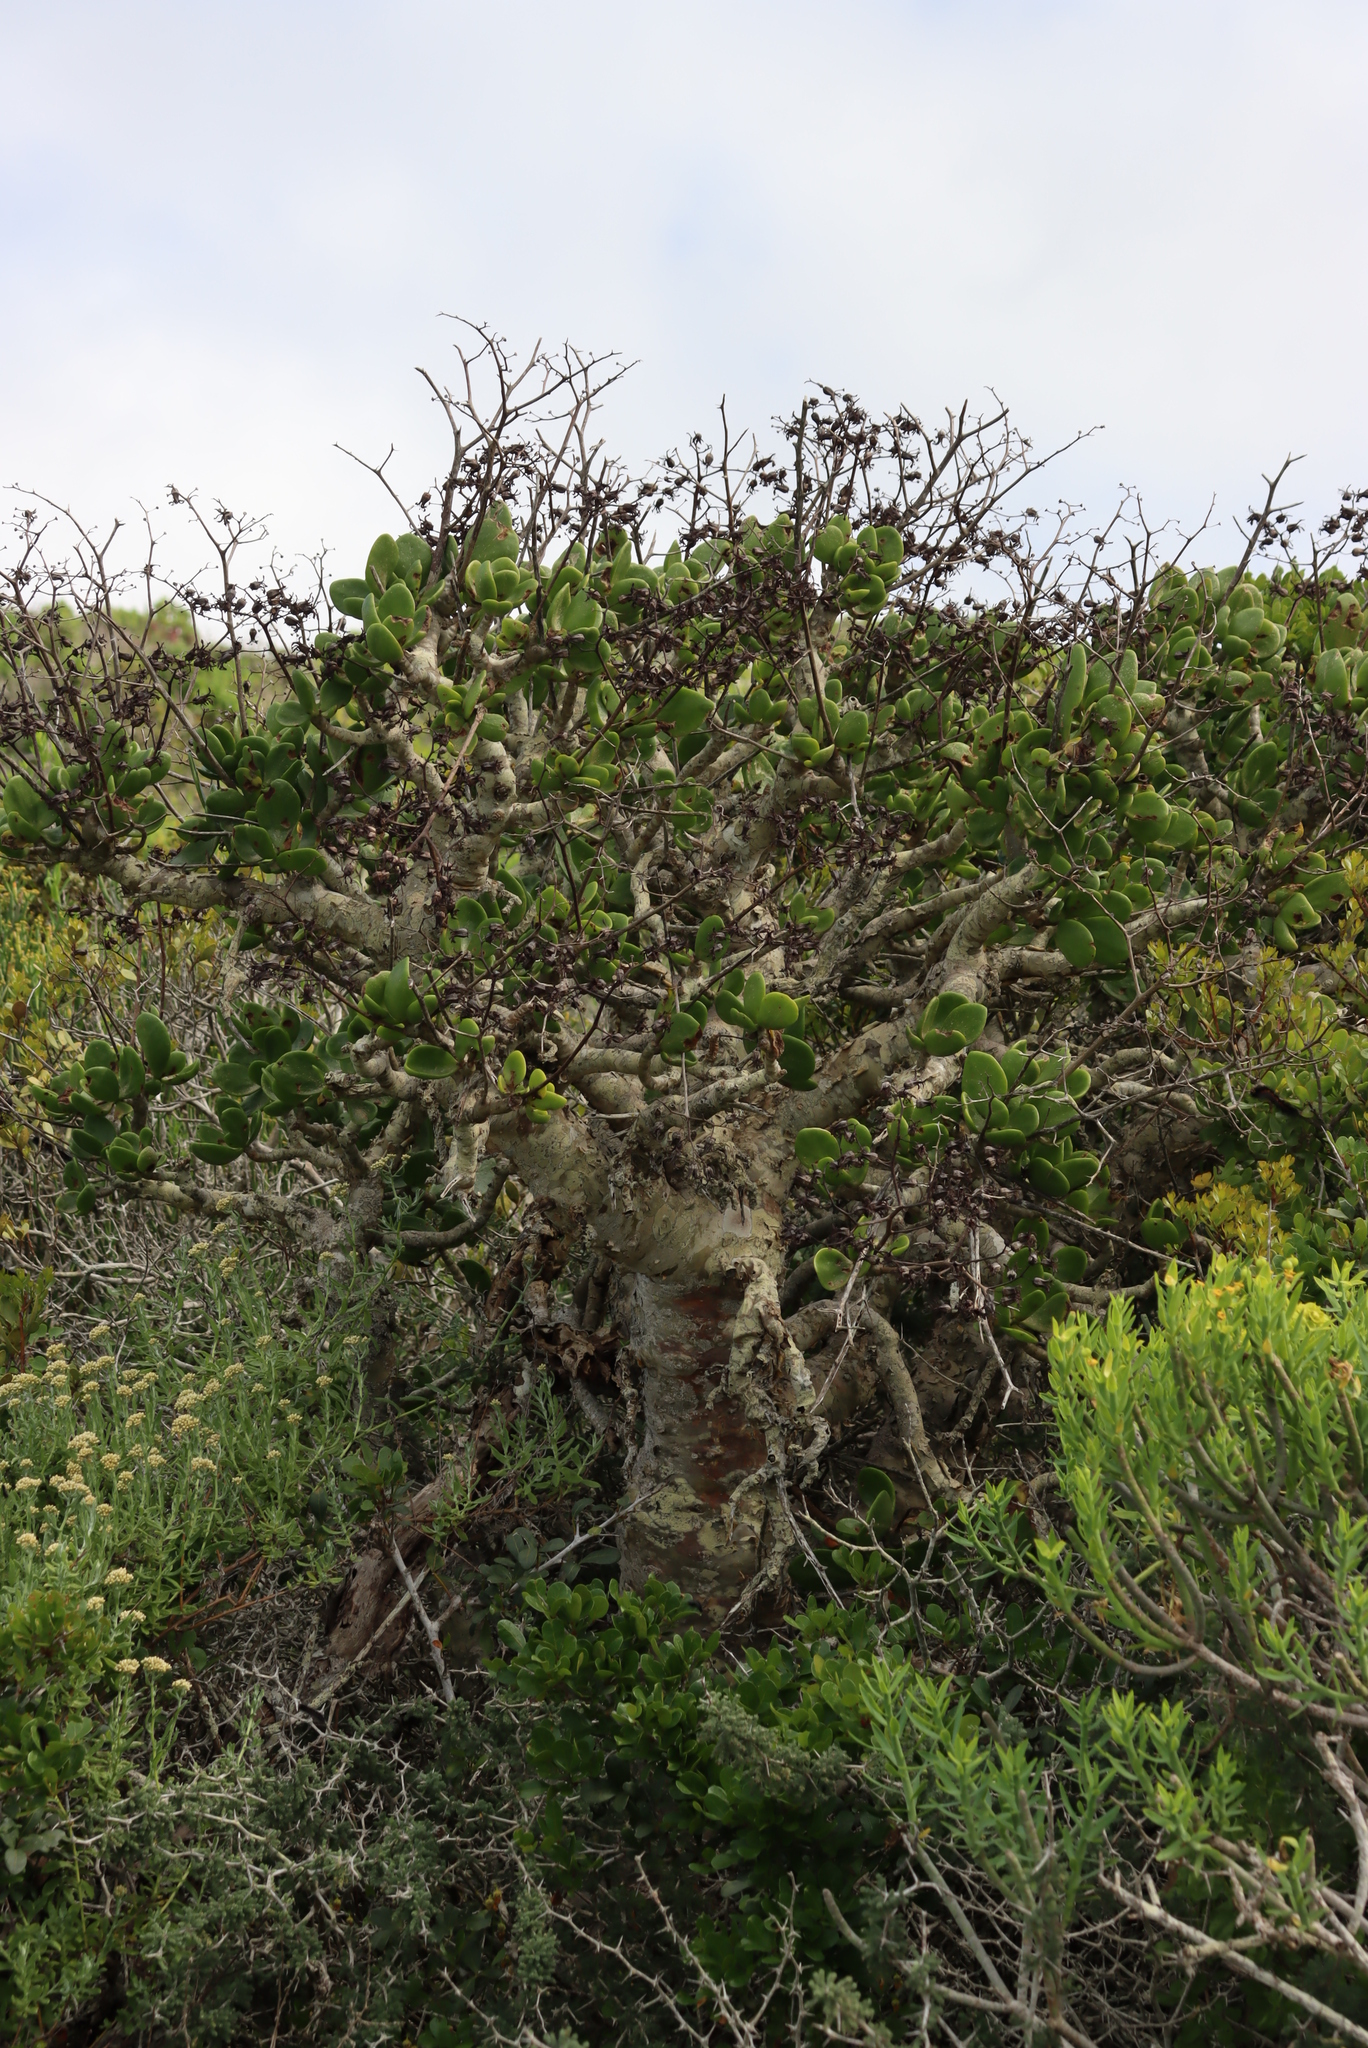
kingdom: Plantae
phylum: Tracheophyta
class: Magnoliopsida
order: Saxifragales
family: Crassulaceae
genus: Tylecodon
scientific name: Tylecodon paniculatus
